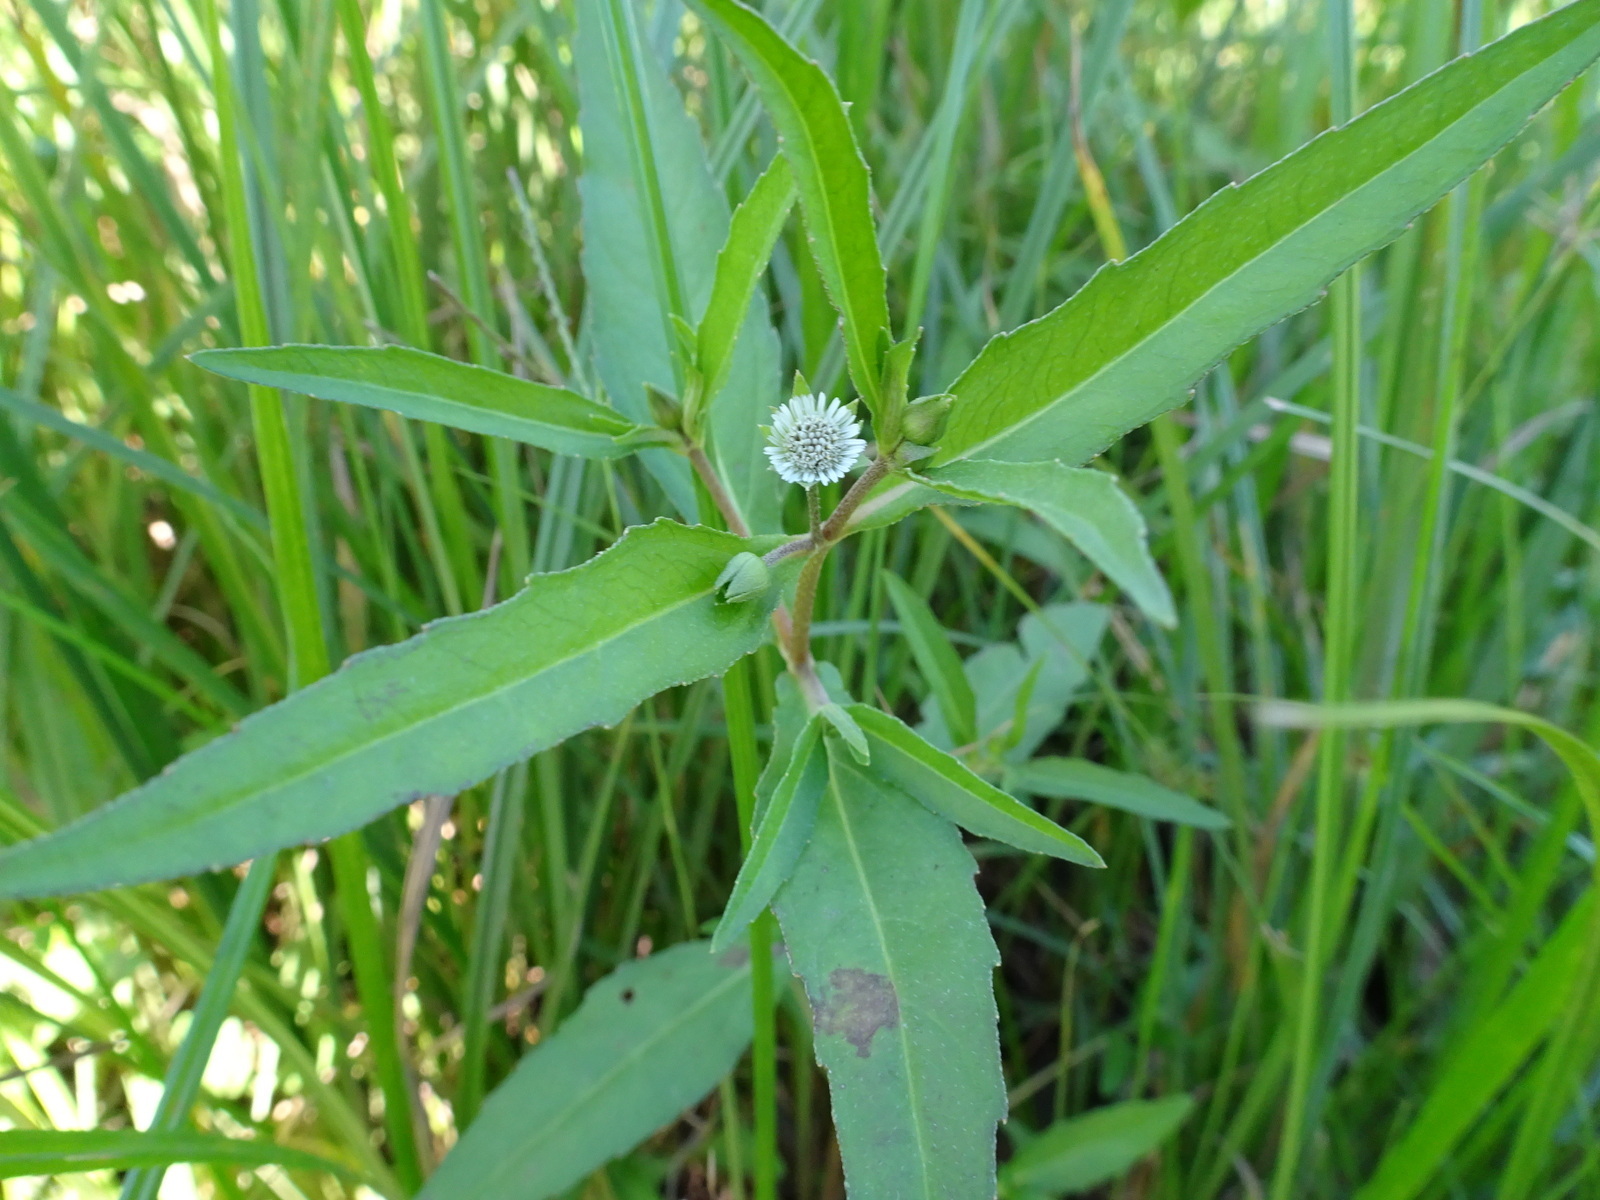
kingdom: Plantae
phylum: Tracheophyta
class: Magnoliopsida
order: Asterales
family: Asteraceae
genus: Eclipta
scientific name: Eclipta prostrata
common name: False daisy
